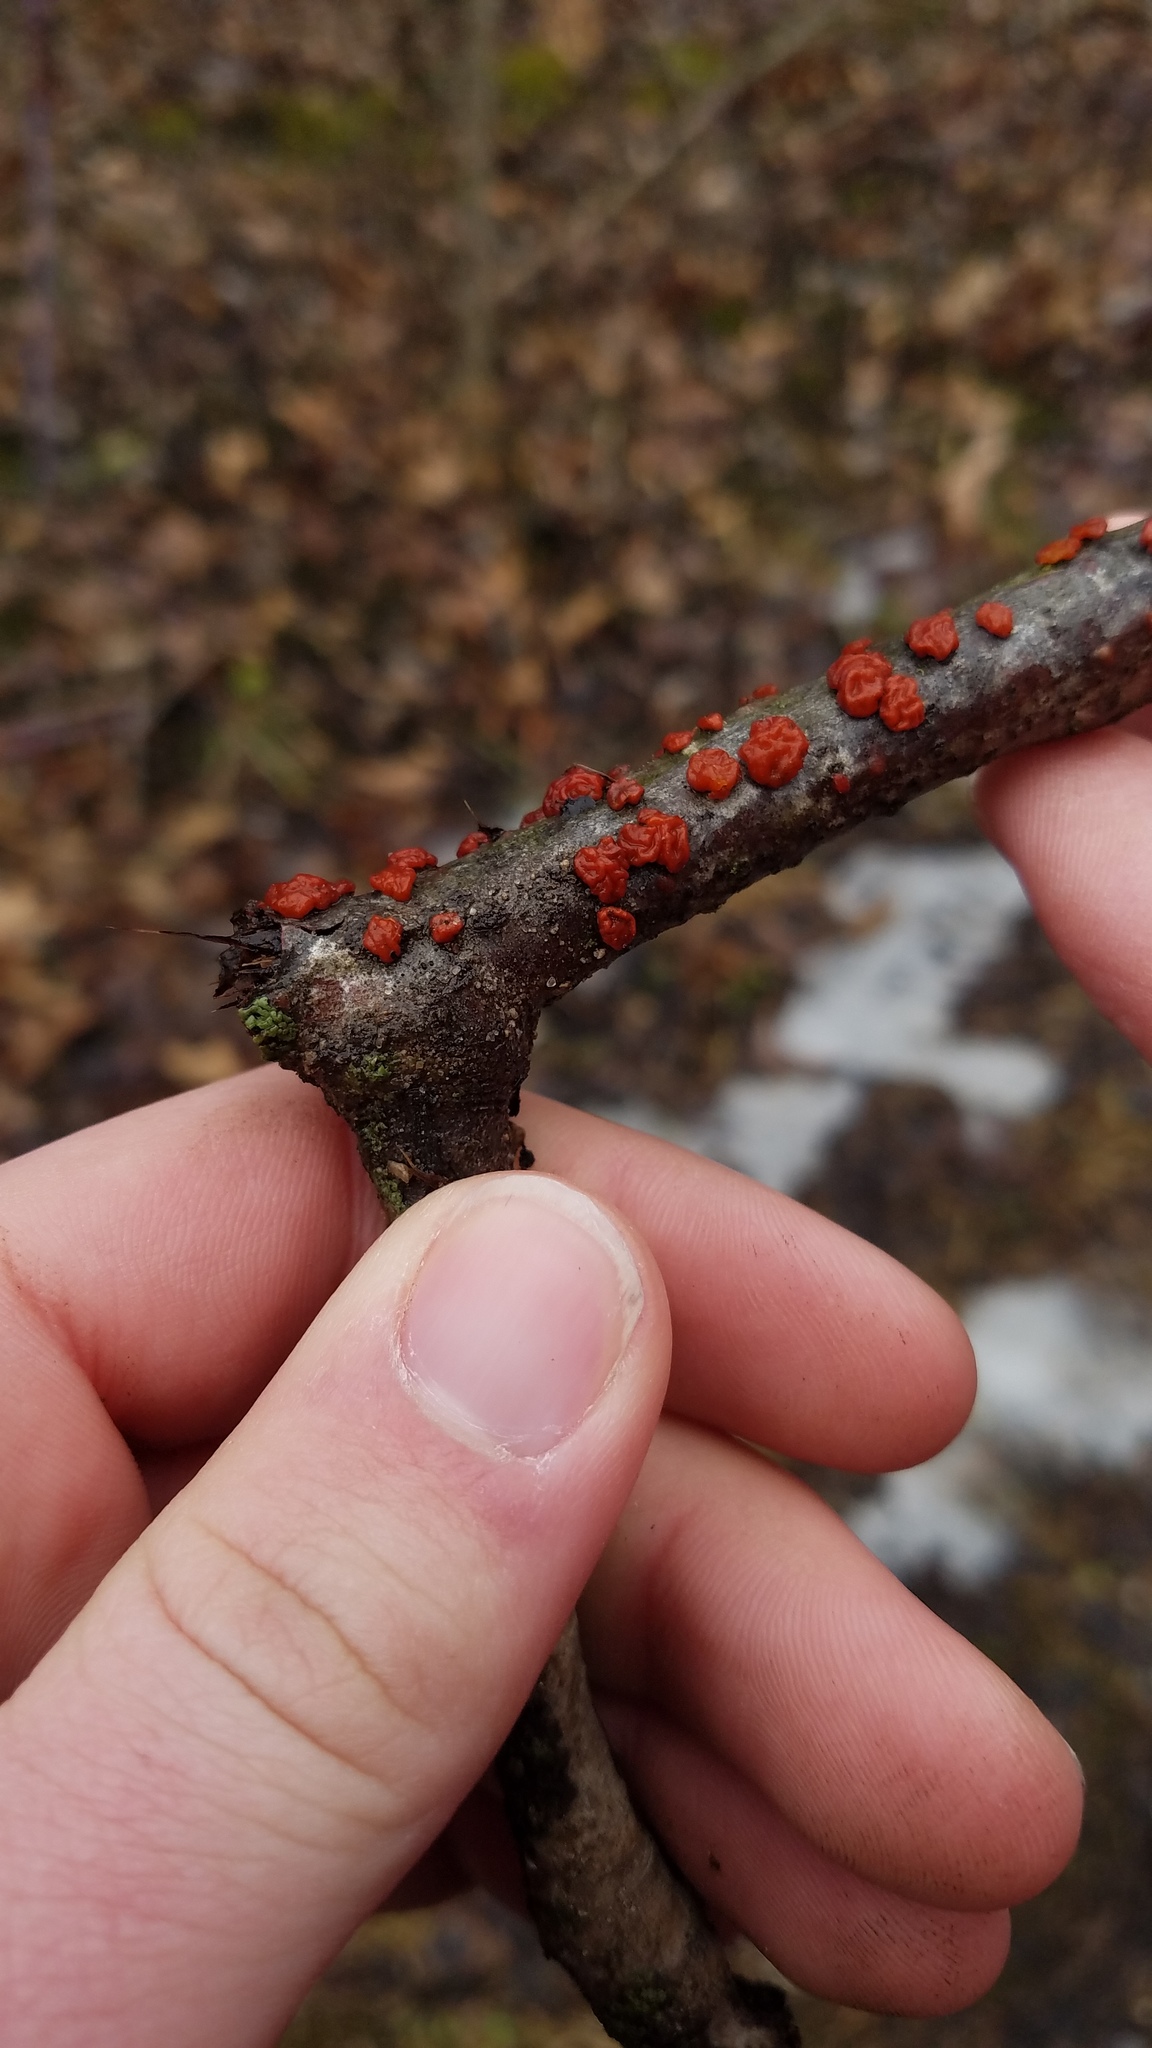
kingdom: Fungi
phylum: Basidiomycota
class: Agaricomycetes
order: Russulales
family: Peniophoraceae
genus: Peniophora
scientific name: Peniophora rufa
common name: Red tree brain fungus
